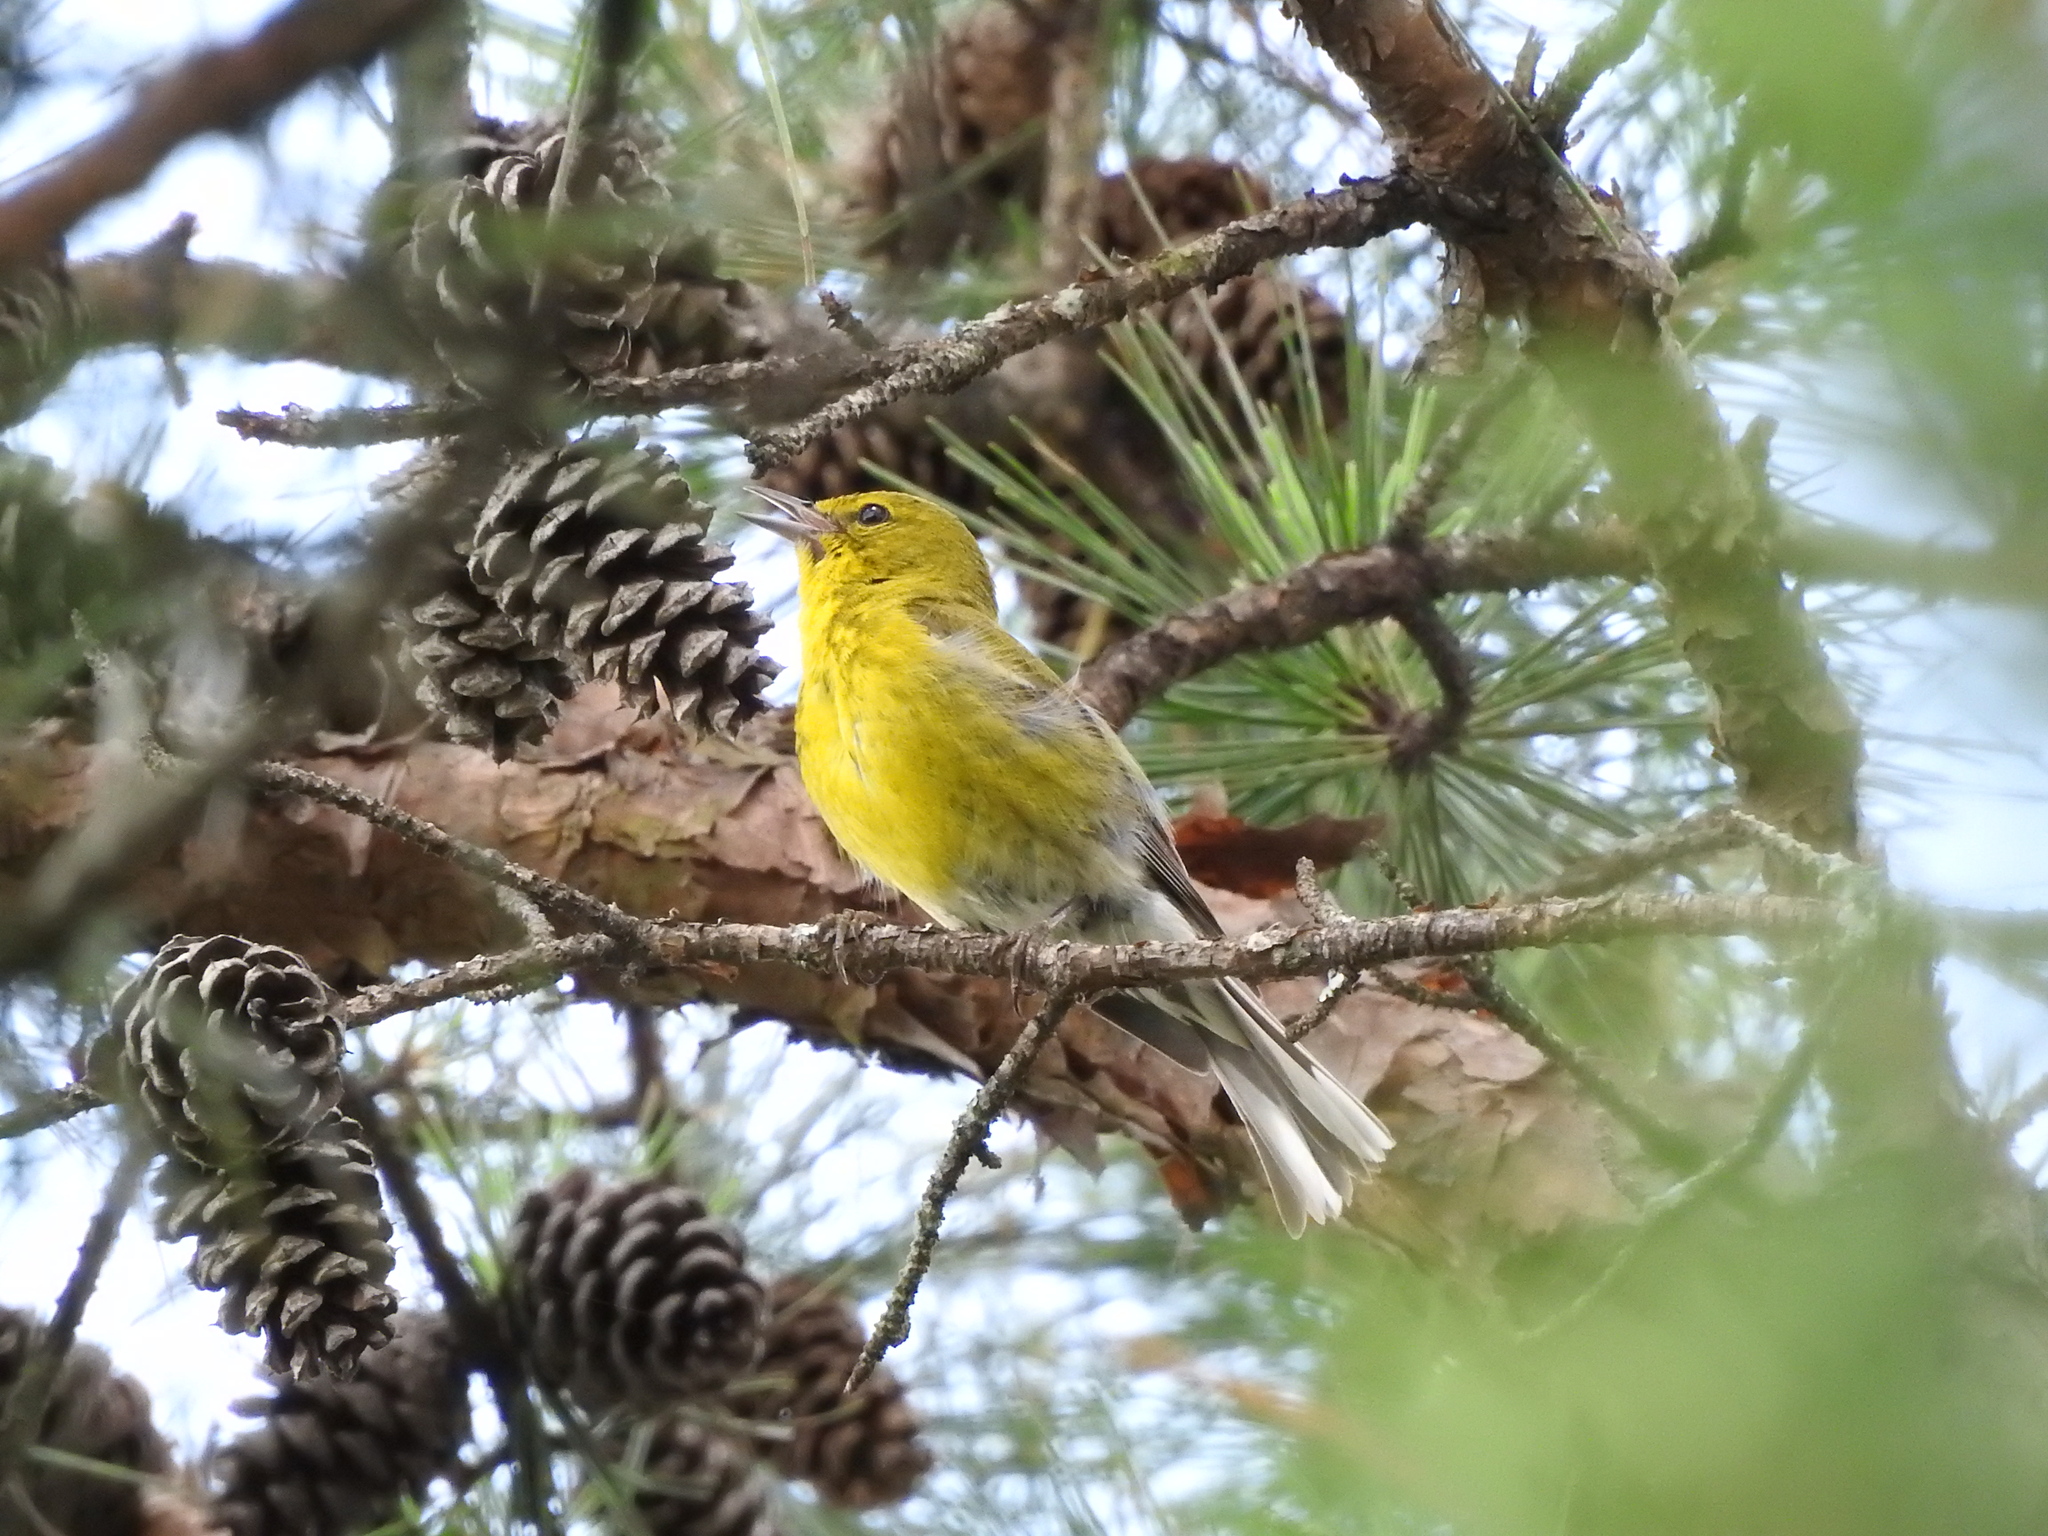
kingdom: Animalia
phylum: Chordata
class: Aves
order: Passeriformes
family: Parulidae
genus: Setophaga
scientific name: Setophaga pinus
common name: Pine warbler
